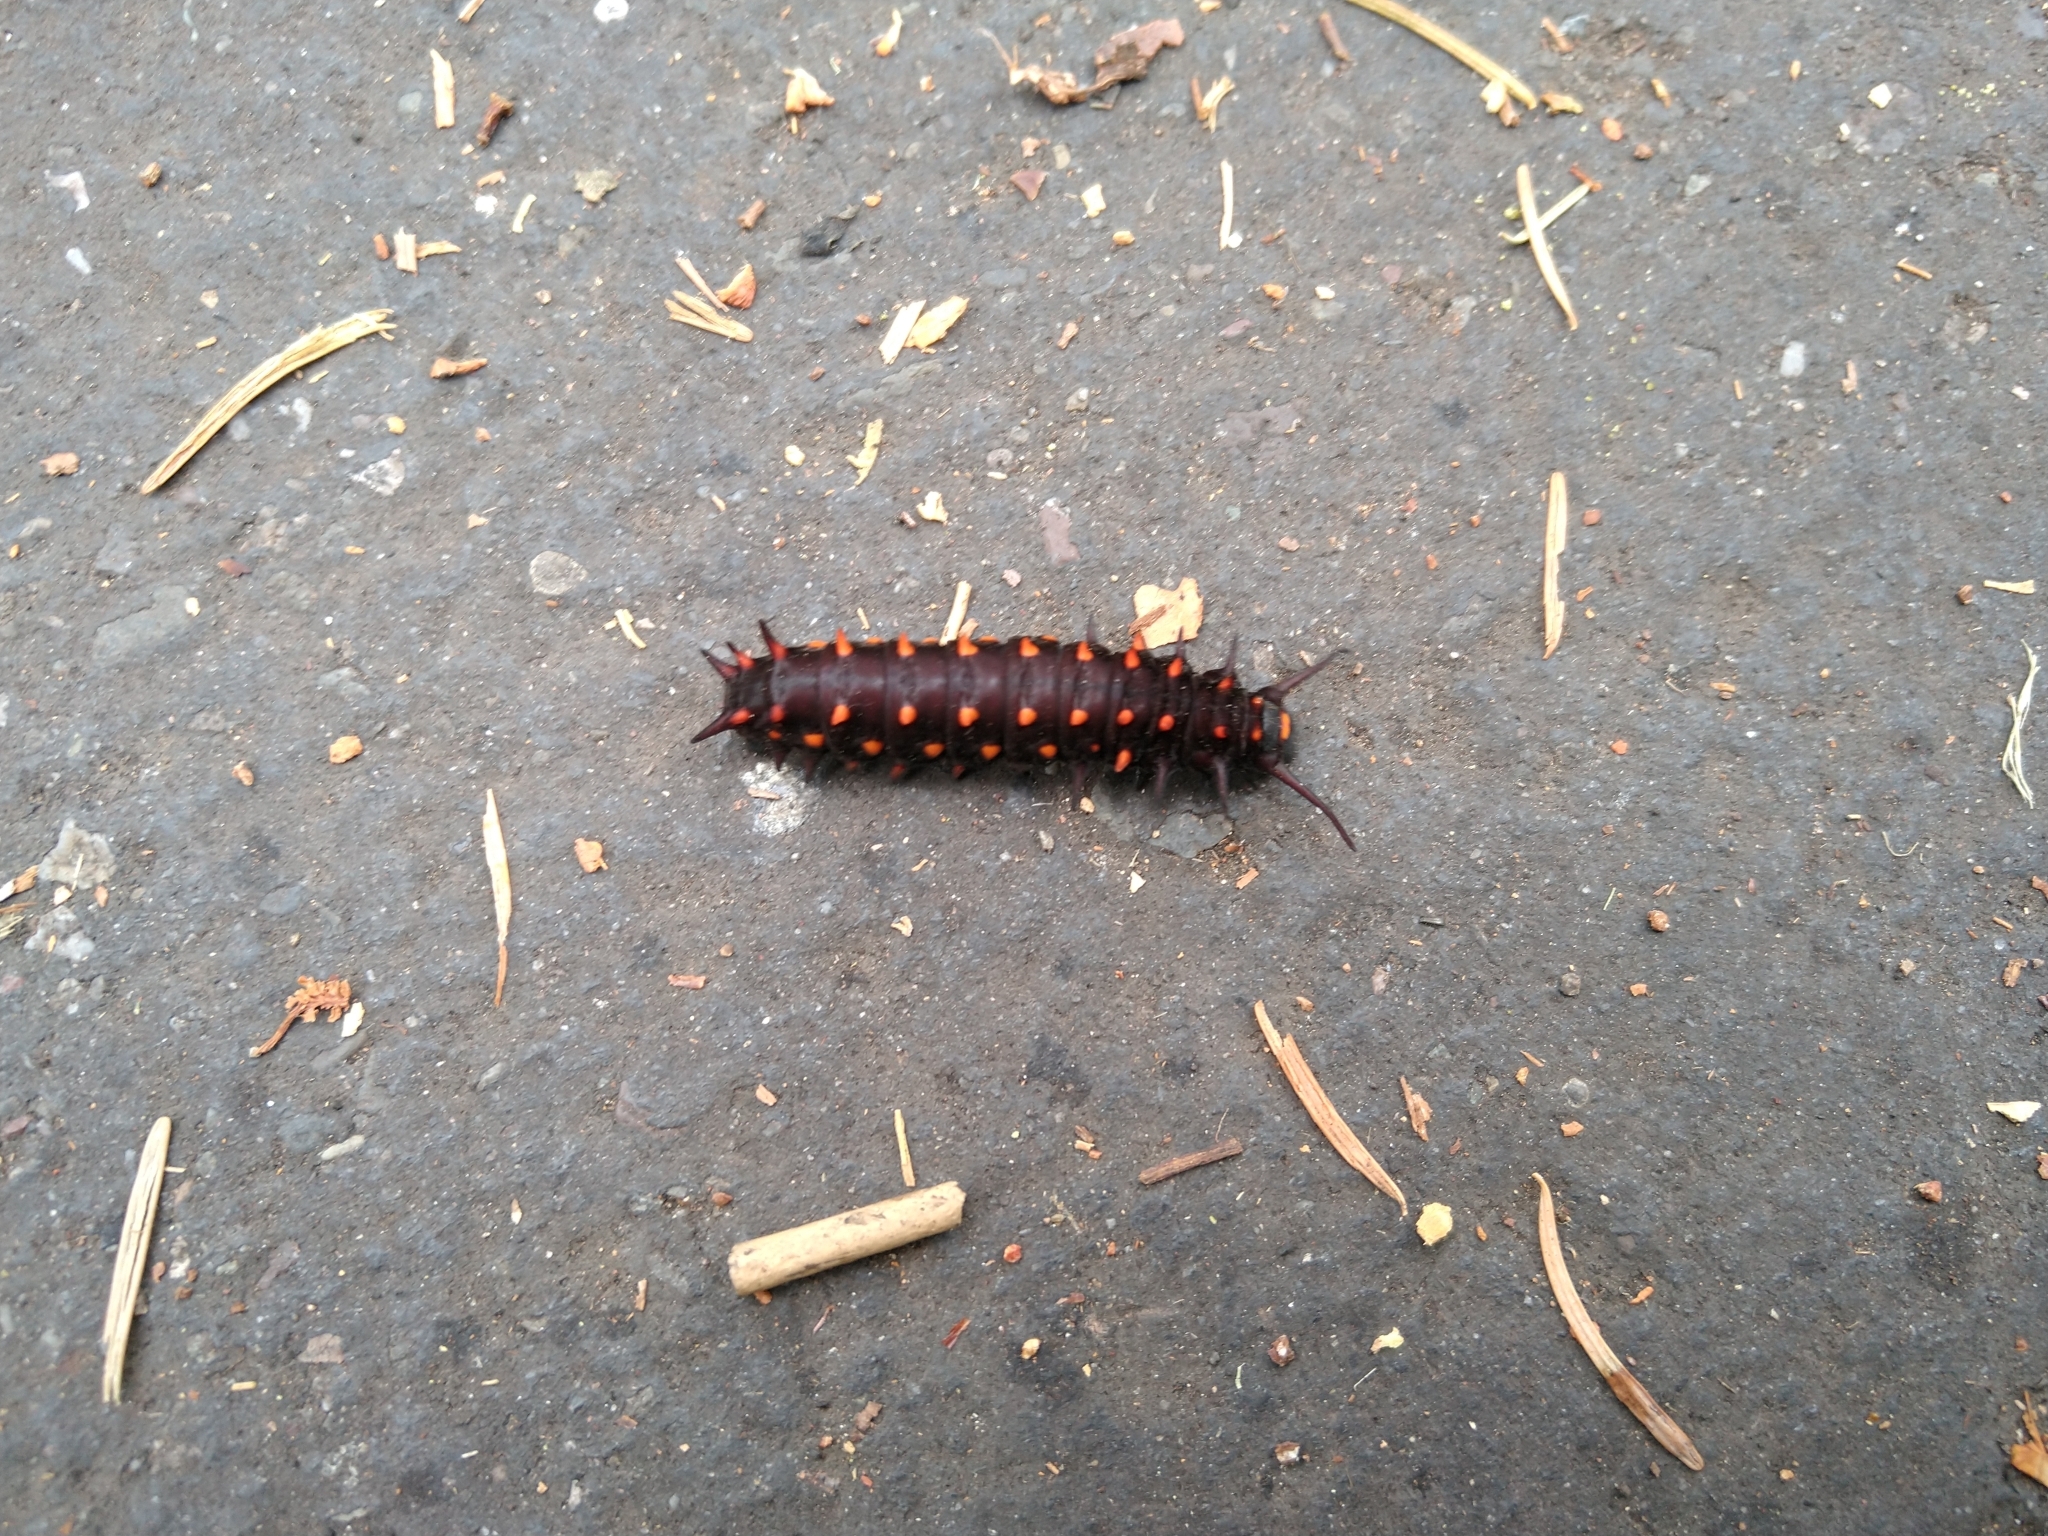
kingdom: Animalia
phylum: Arthropoda
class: Insecta
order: Lepidoptera
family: Papilionidae
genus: Battus
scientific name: Battus philenor
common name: Pipevine swallowtail
